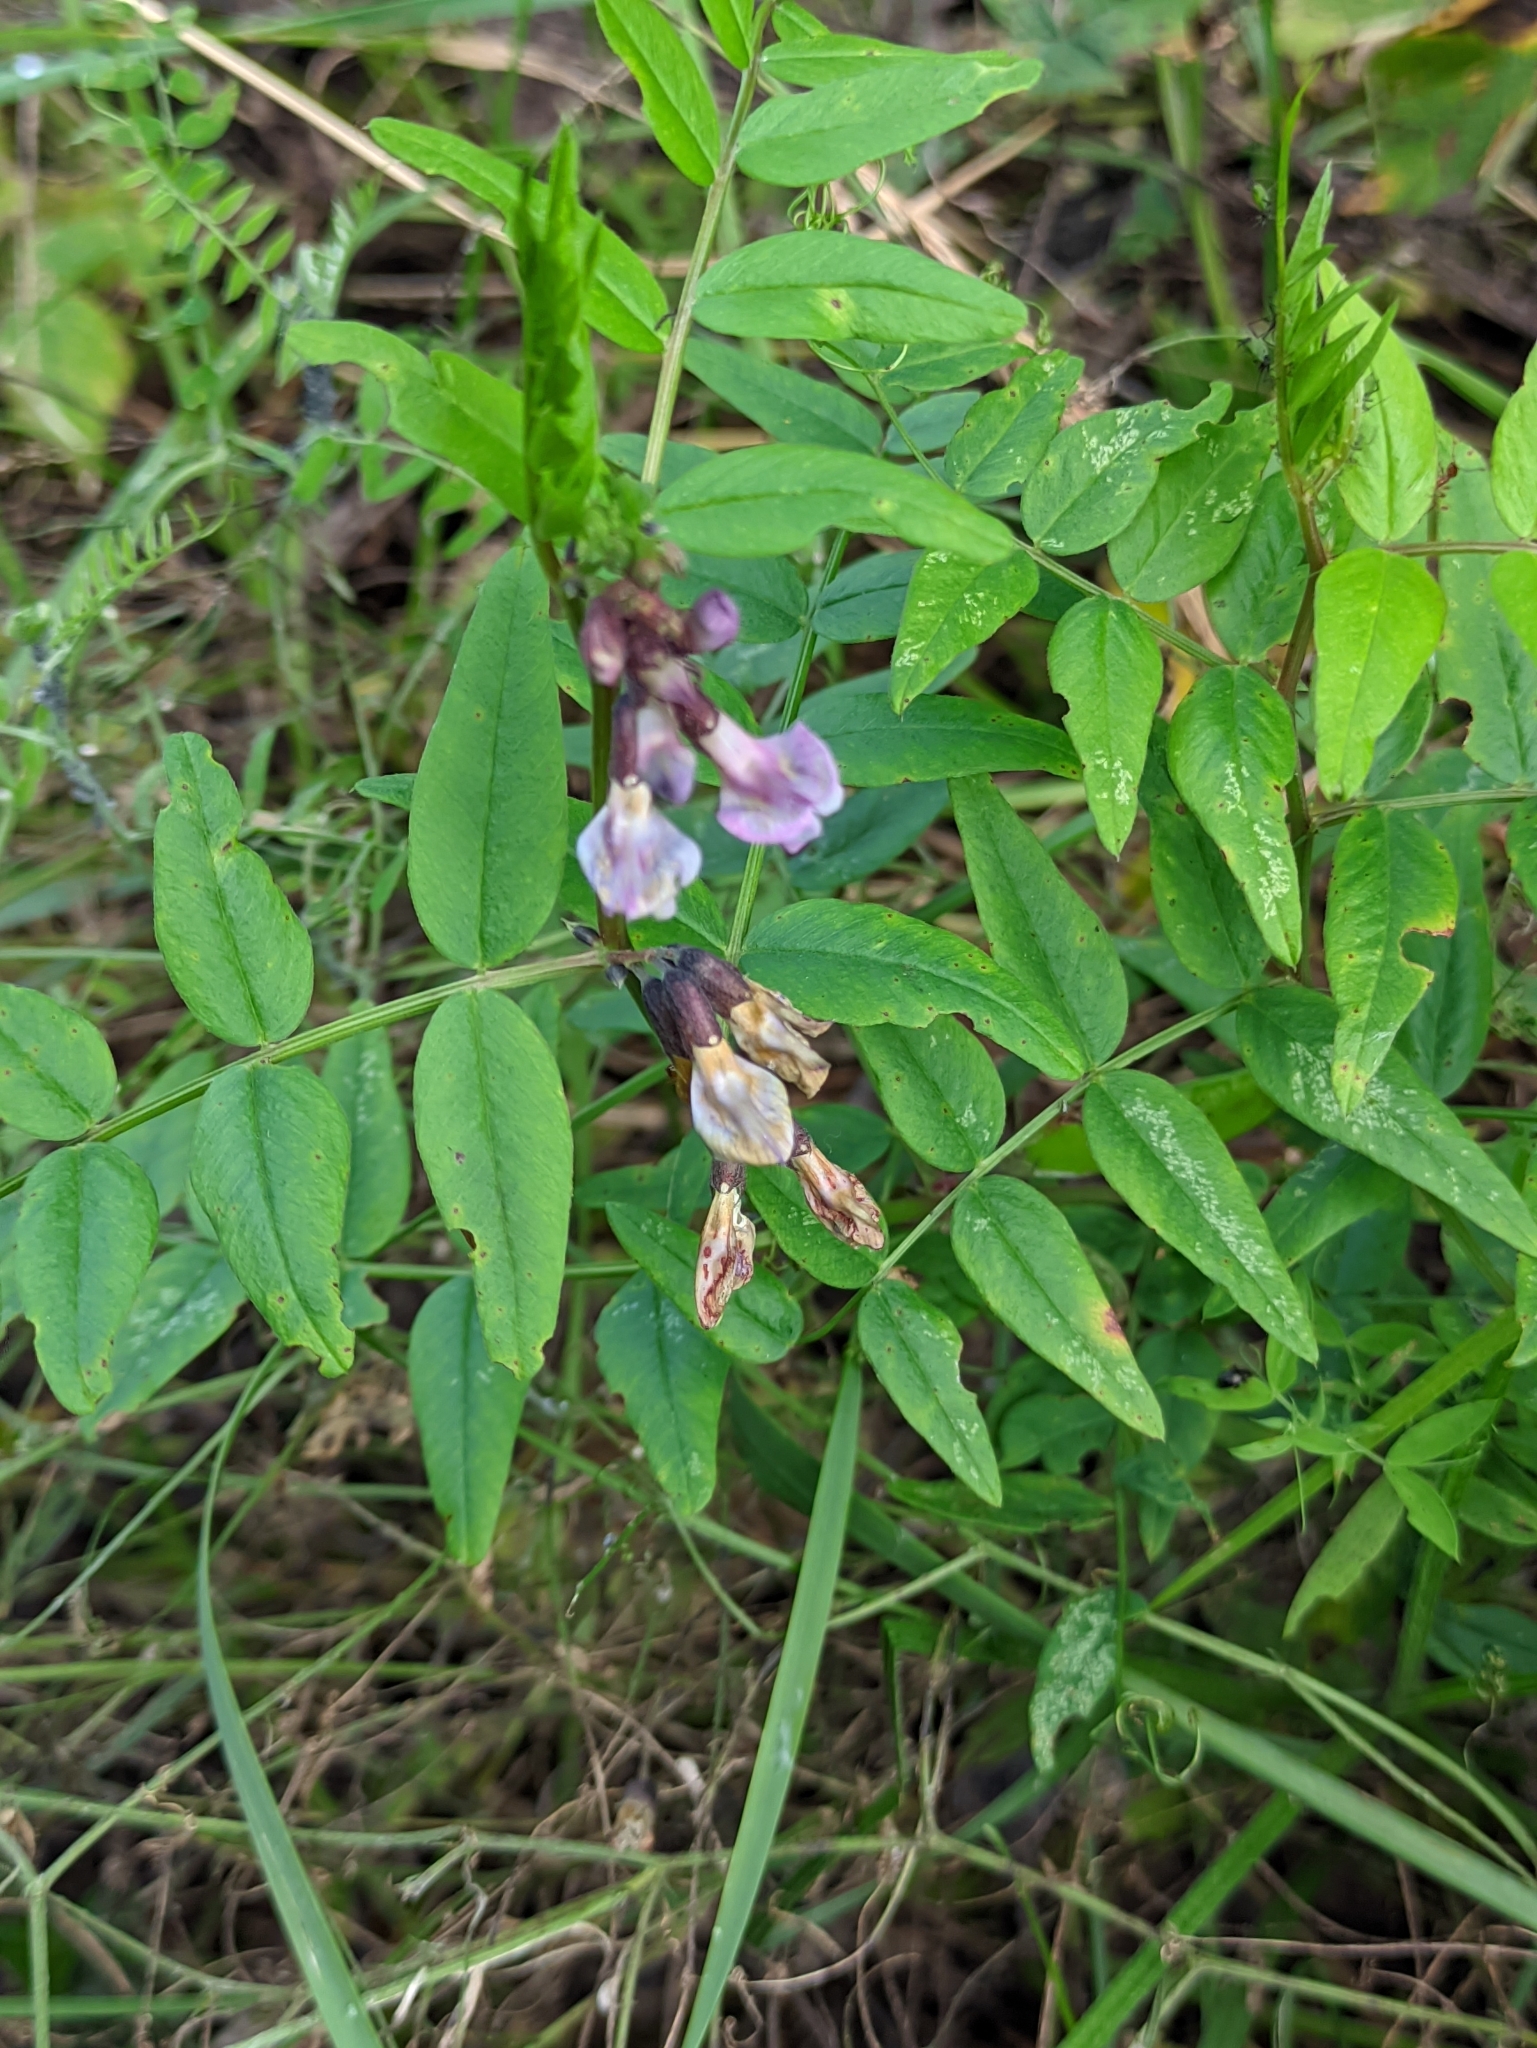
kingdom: Plantae
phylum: Tracheophyta
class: Magnoliopsida
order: Fabales
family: Fabaceae
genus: Vicia
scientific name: Vicia sepium
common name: Bush vetch
